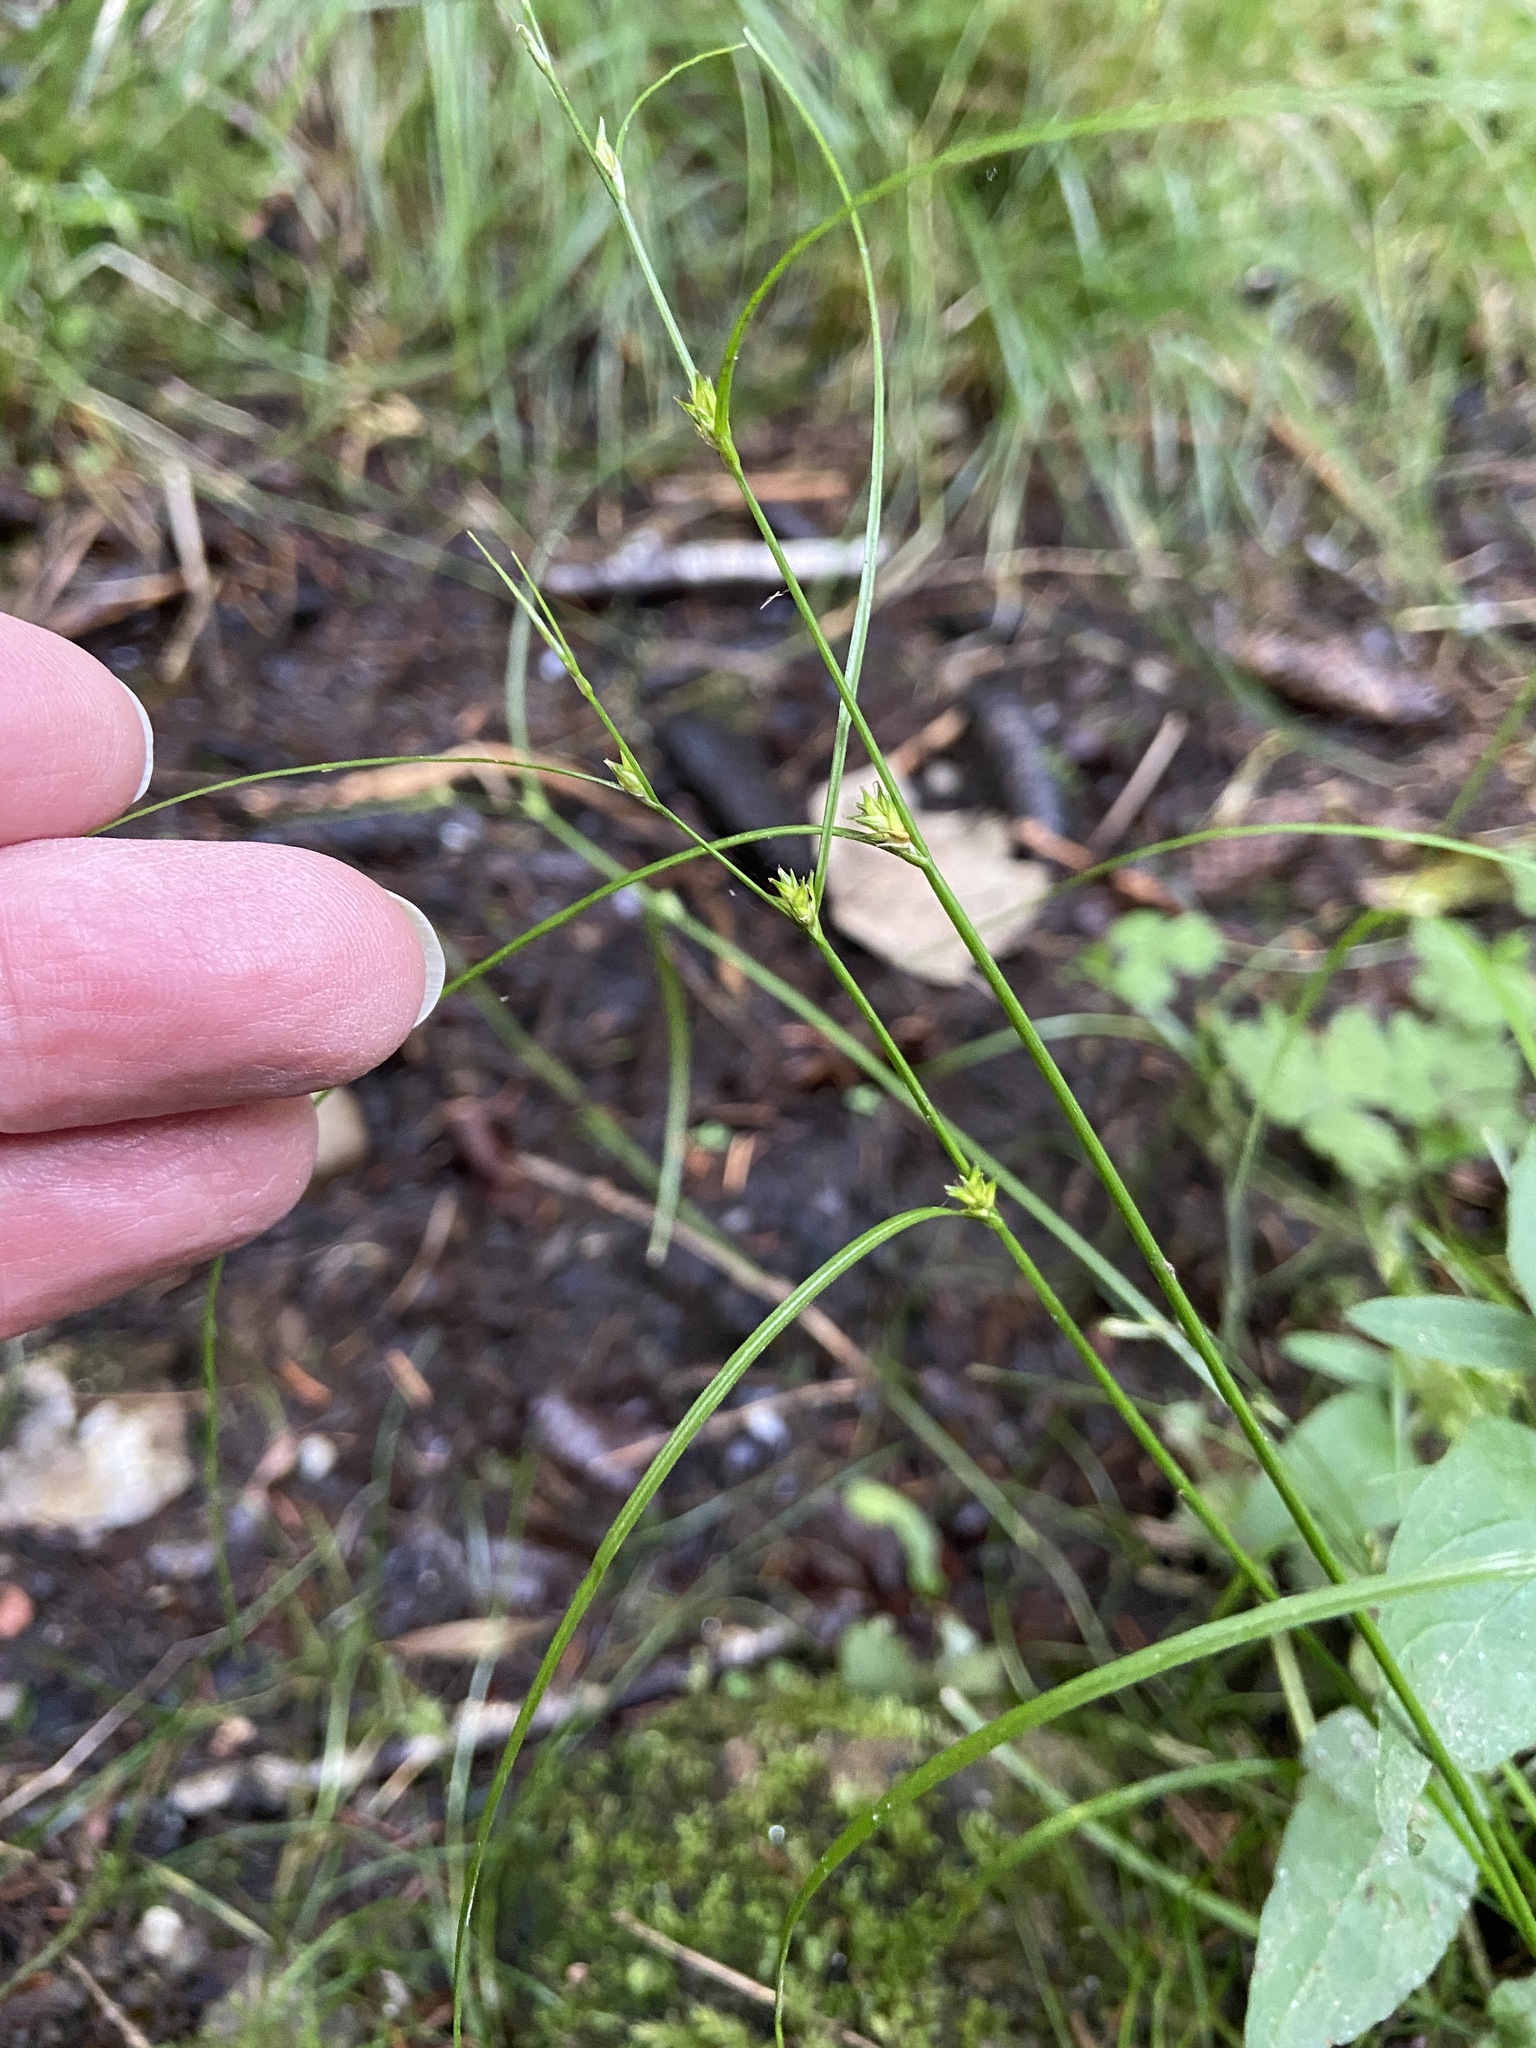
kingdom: Plantae
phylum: Tracheophyta
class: Liliopsida
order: Poales
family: Cyperaceae
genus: Carex
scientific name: Carex remota
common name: Remote sedge
